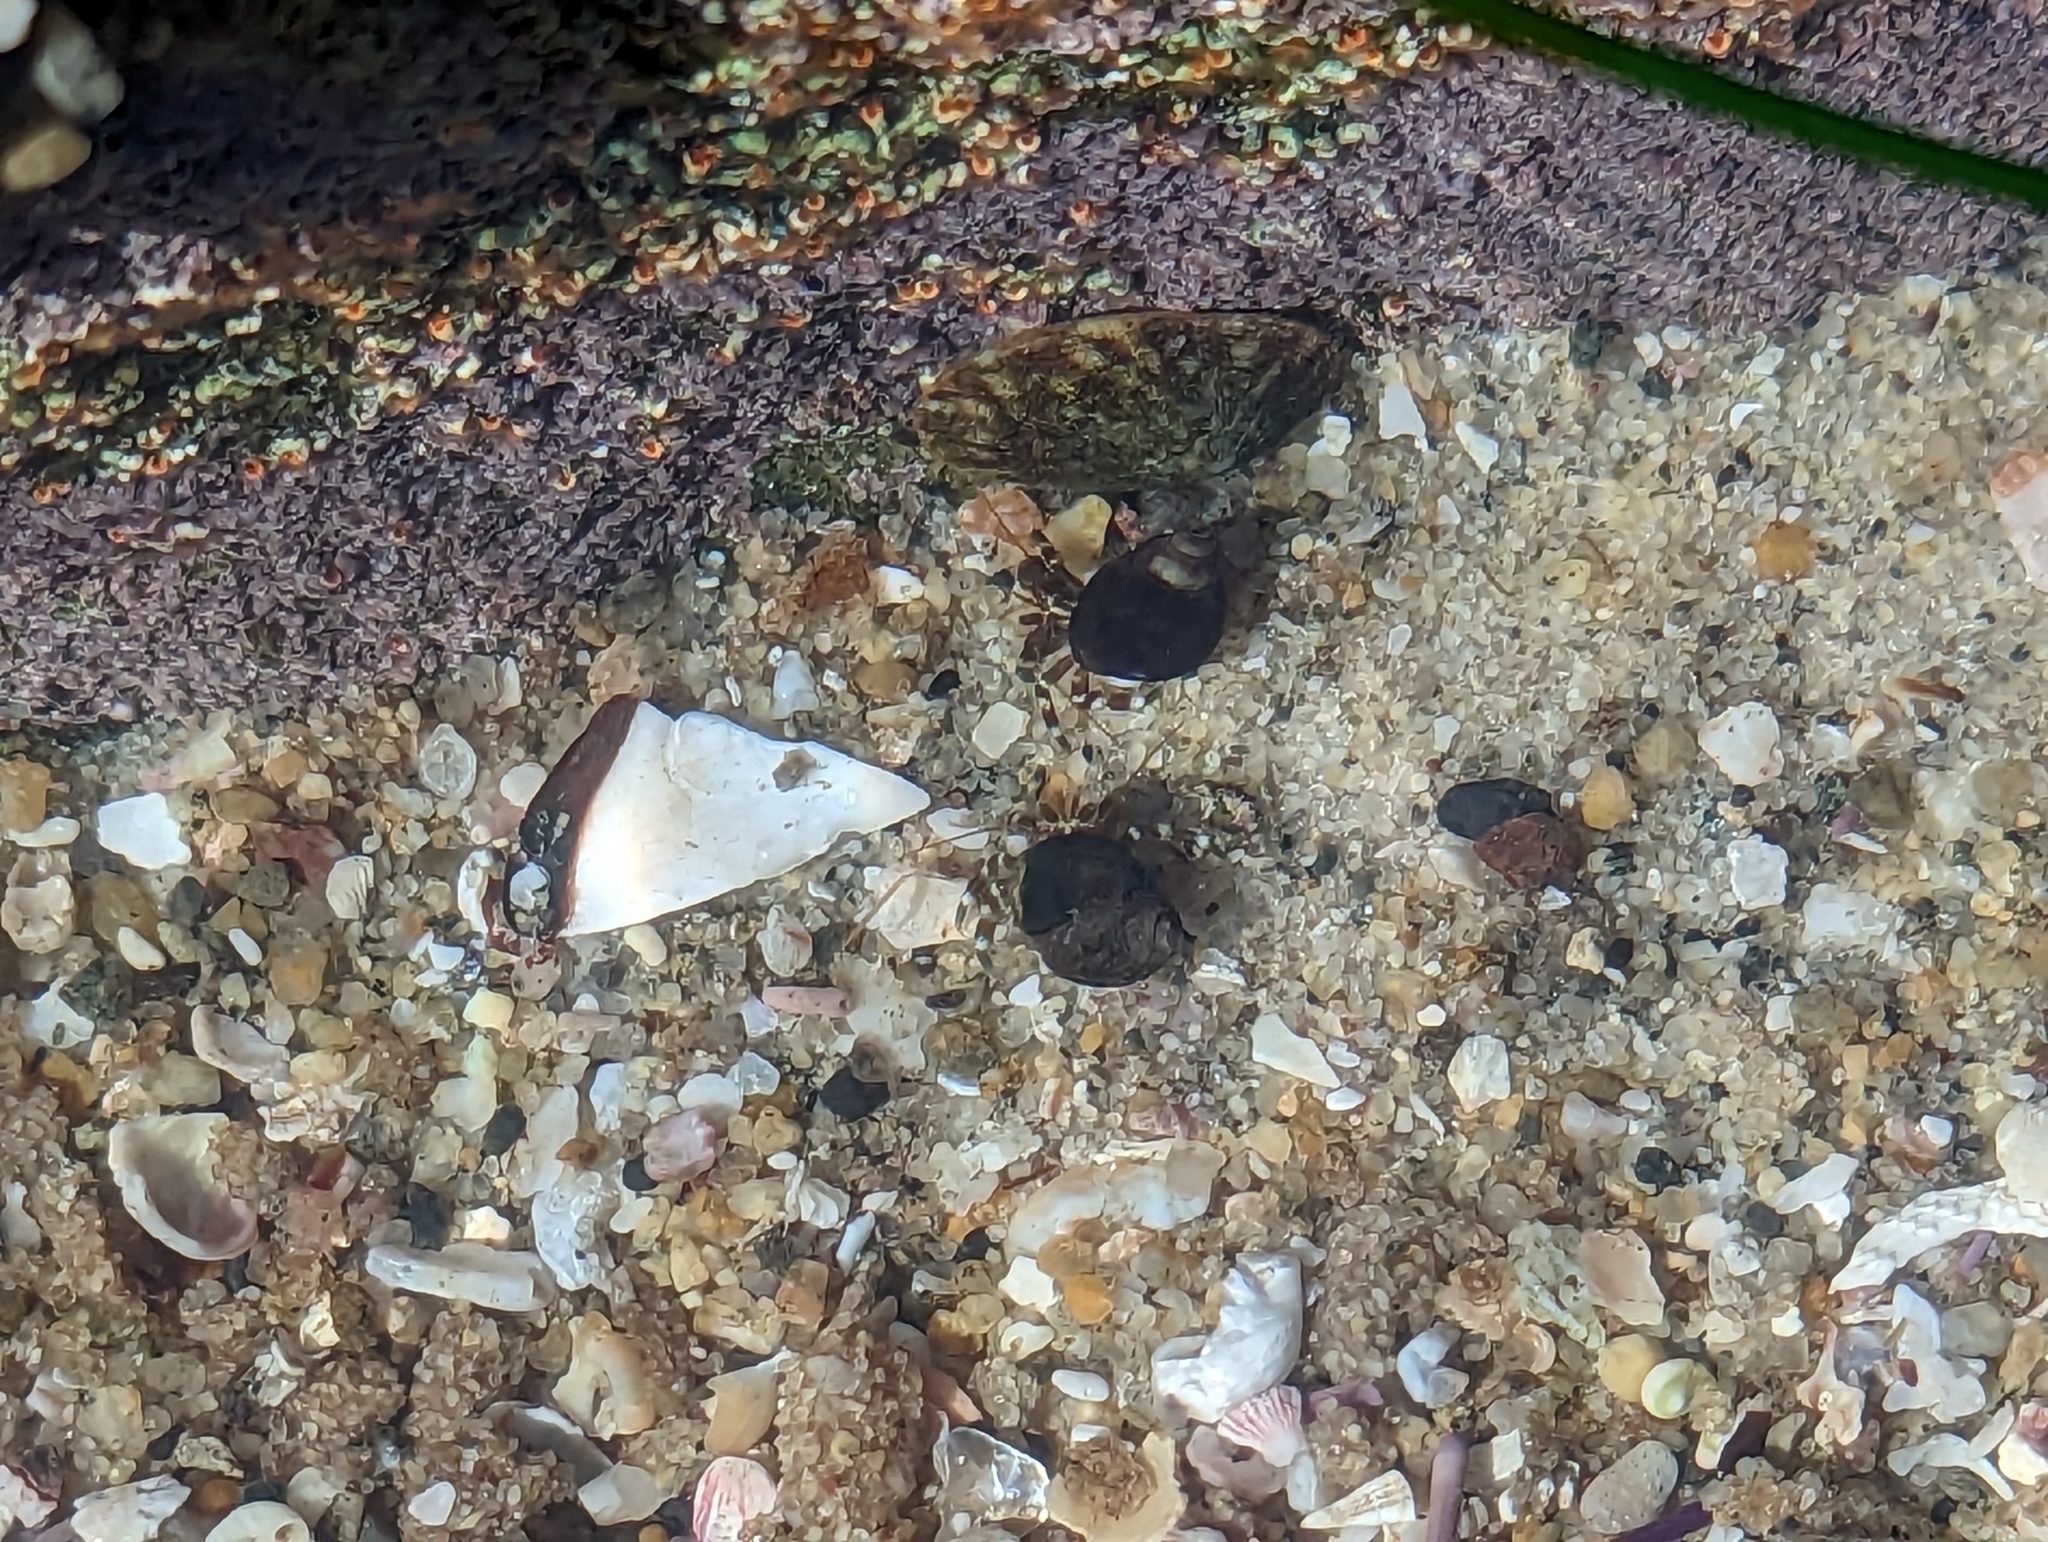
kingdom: Animalia
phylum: Arthropoda
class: Malacostraca
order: Decapoda
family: Paguridae
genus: Pagurus
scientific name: Pagurus samuelis
